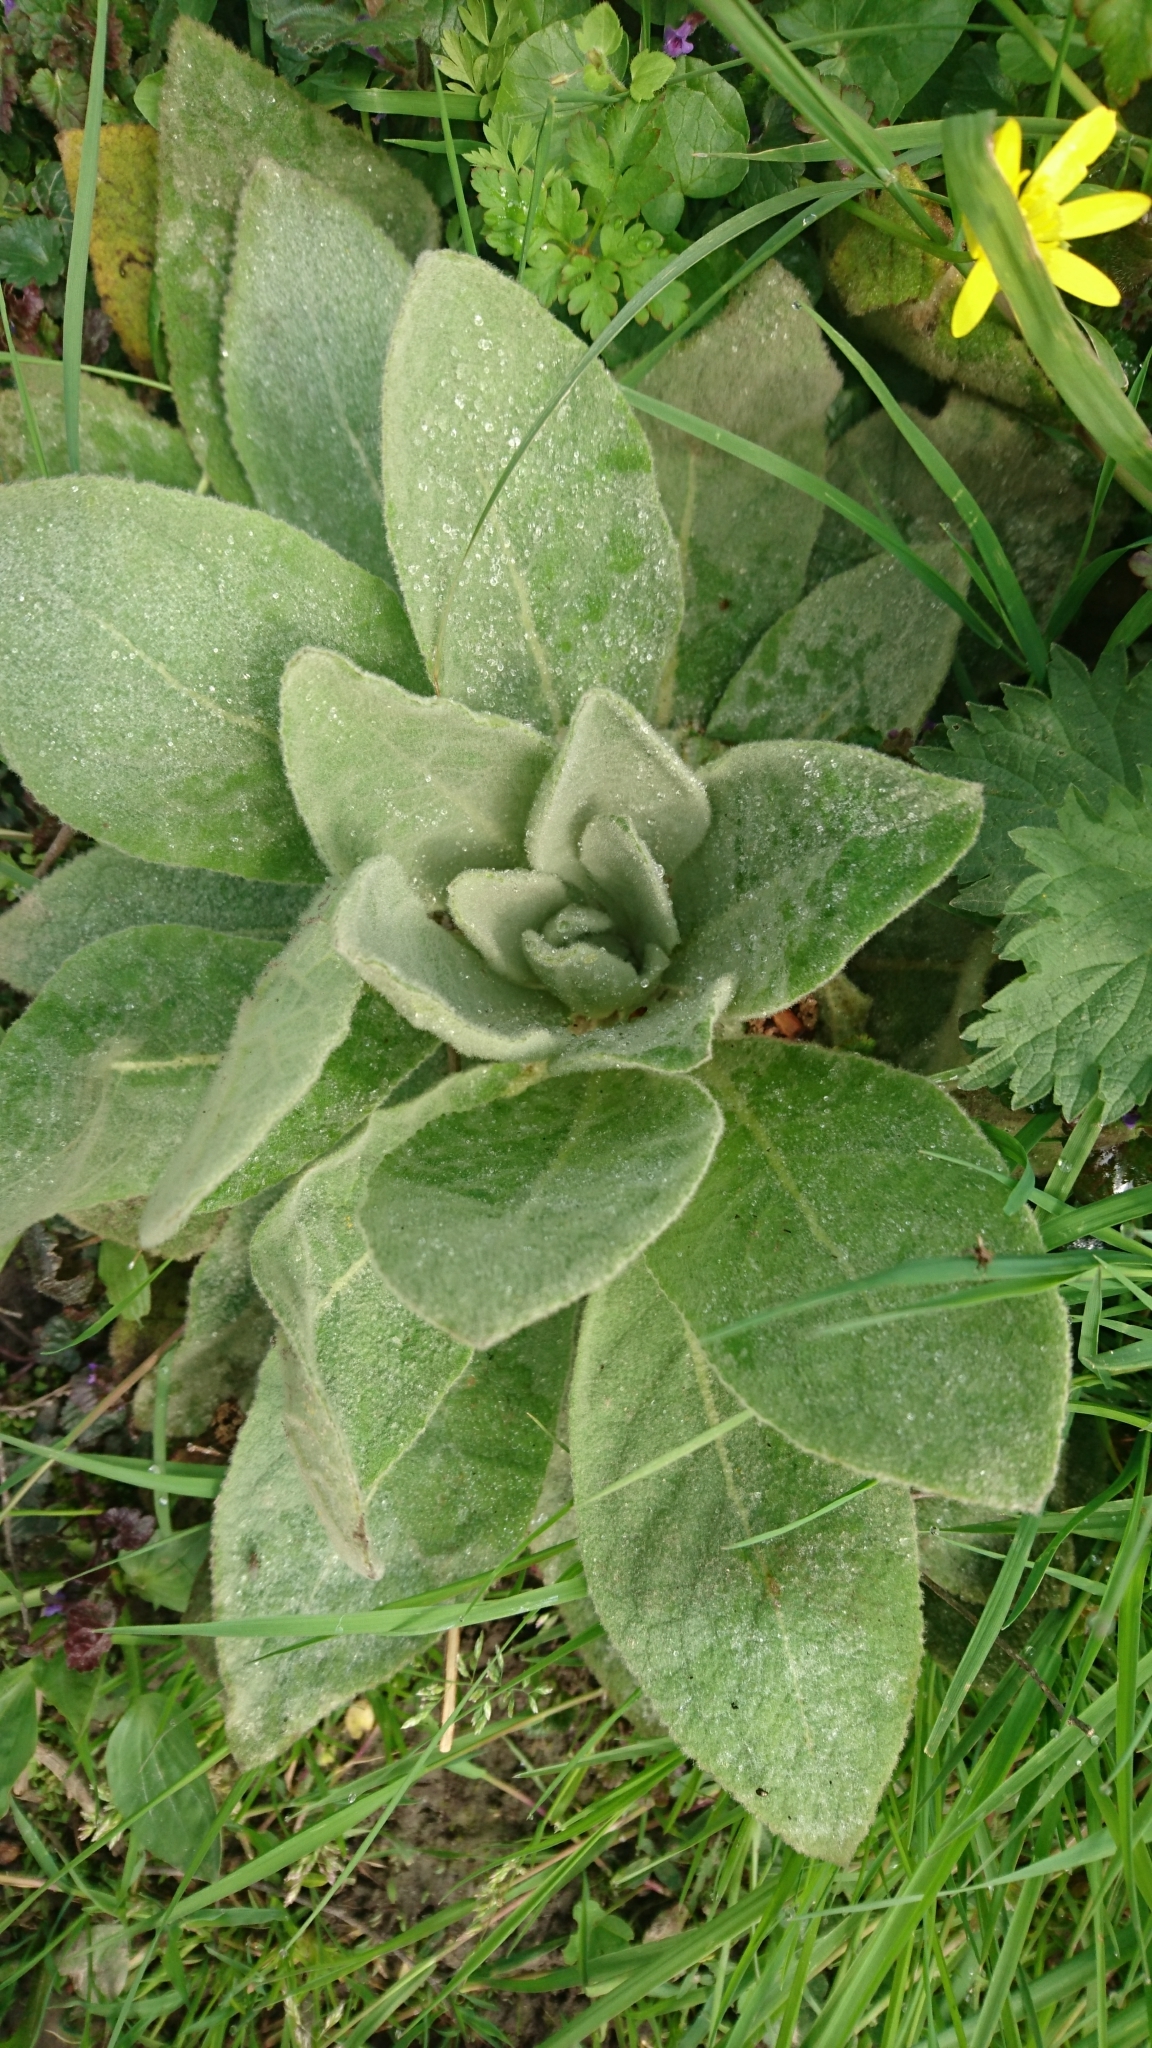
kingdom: Plantae
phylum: Tracheophyta
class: Magnoliopsida
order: Lamiales
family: Scrophulariaceae
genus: Verbascum
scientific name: Verbascum thapsus
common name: Common mullein
